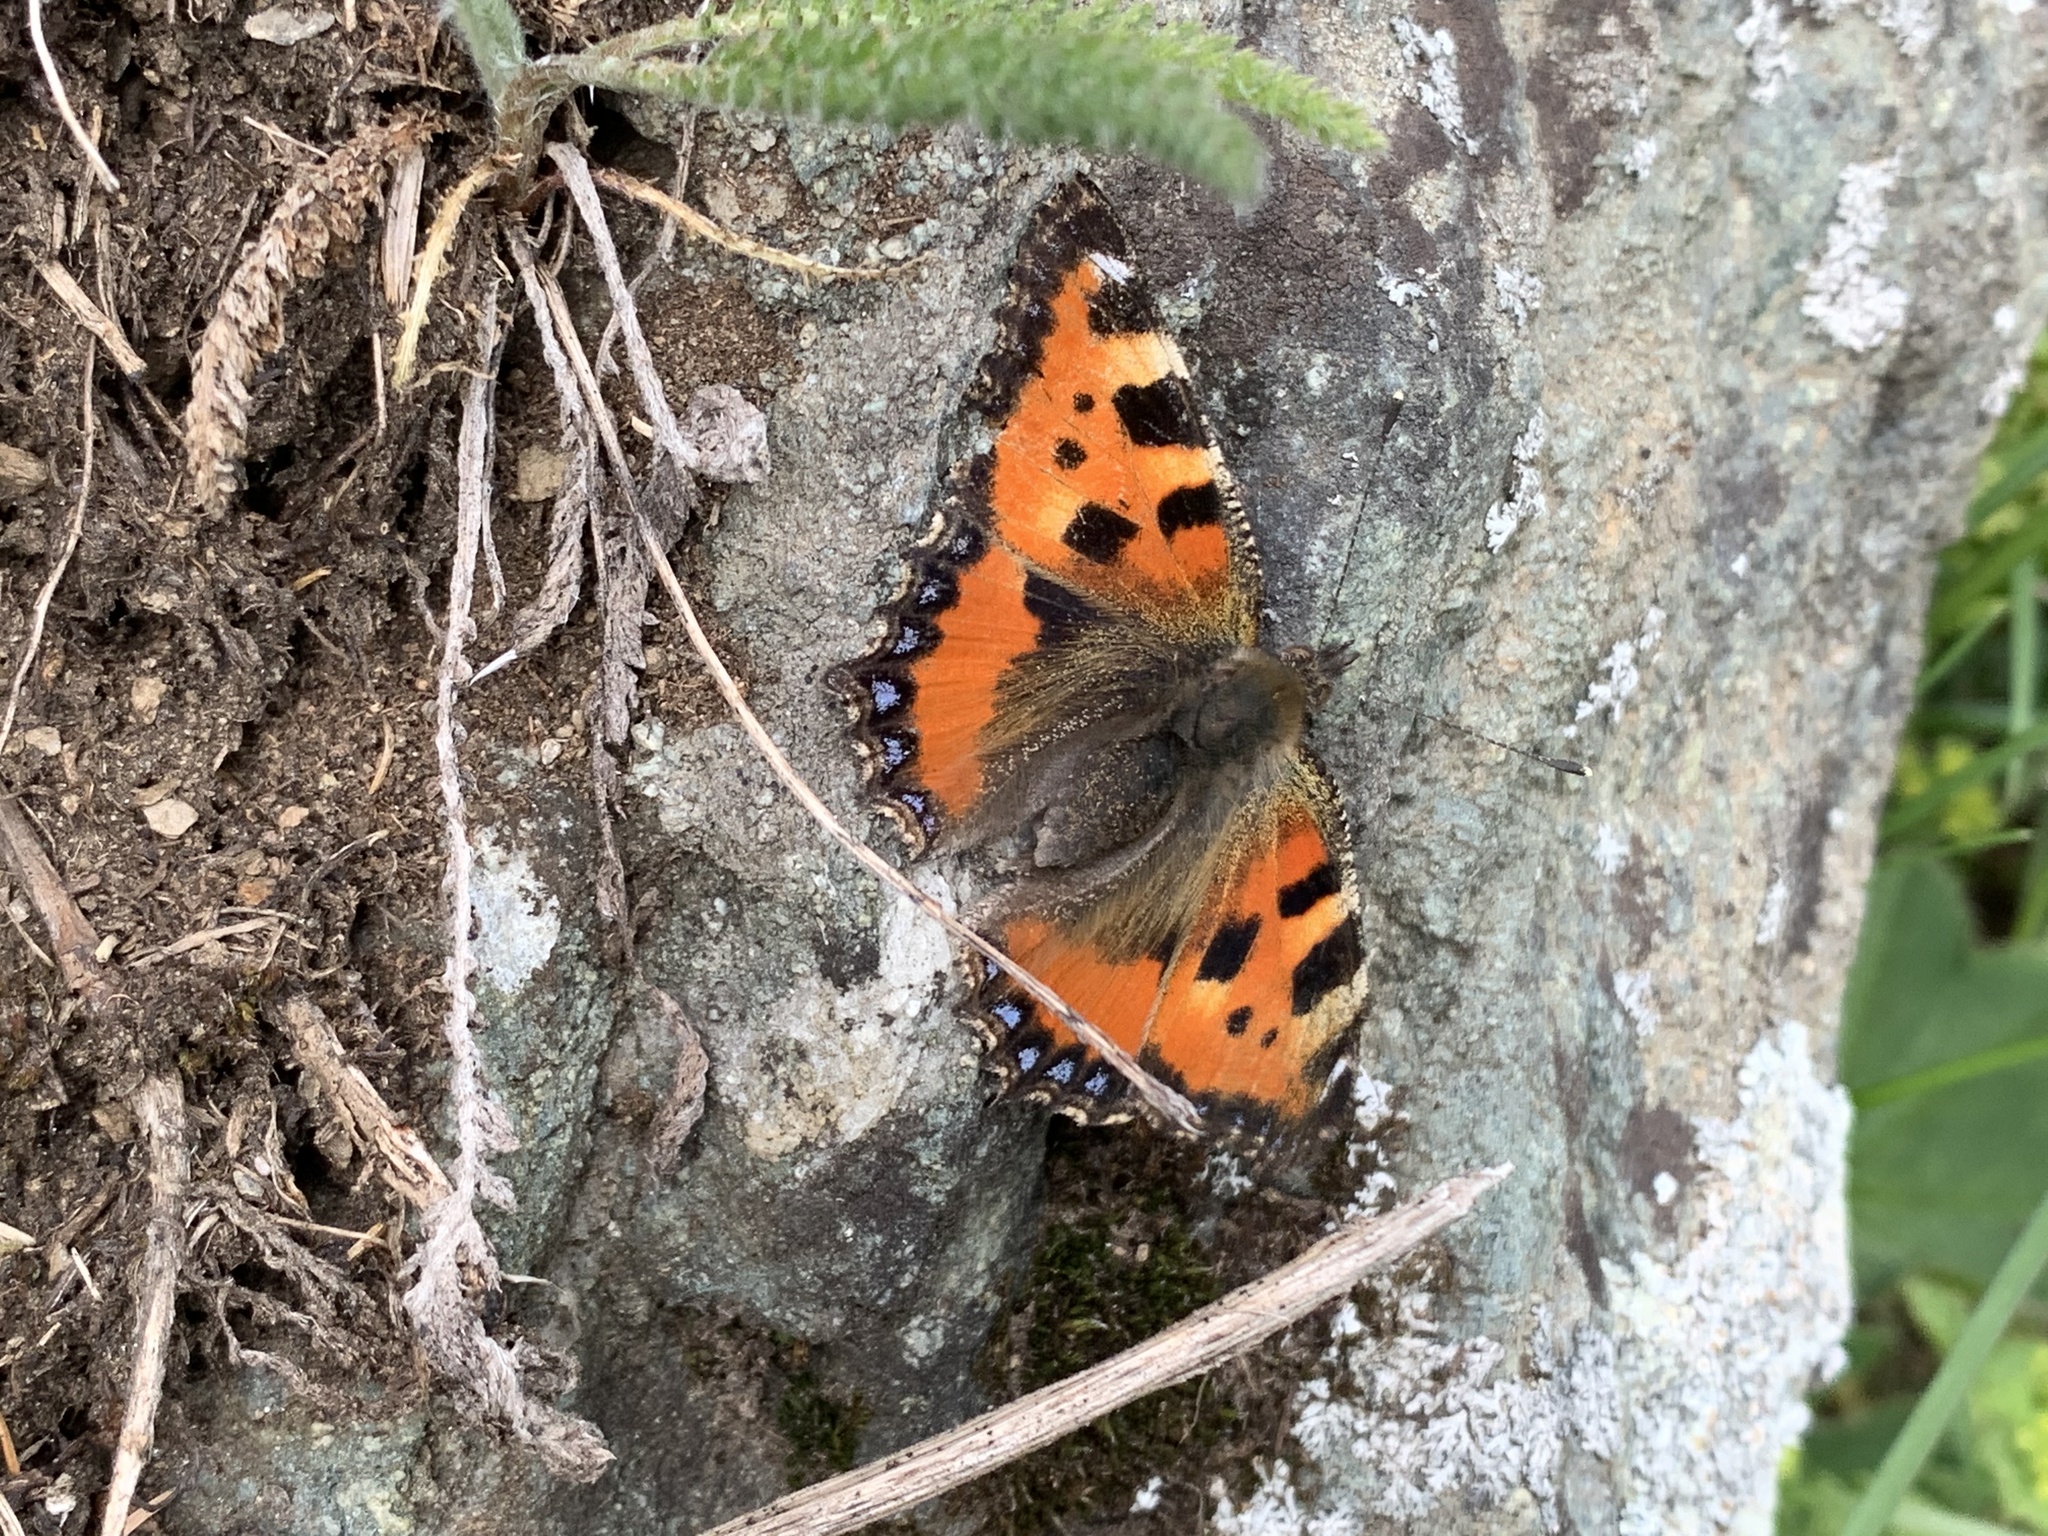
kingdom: Animalia
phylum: Arthropoda
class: Insecta
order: Lepidoptera
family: Nymphalidae
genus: Aglais
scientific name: Aglais urticae
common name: Small tortoiseshell
